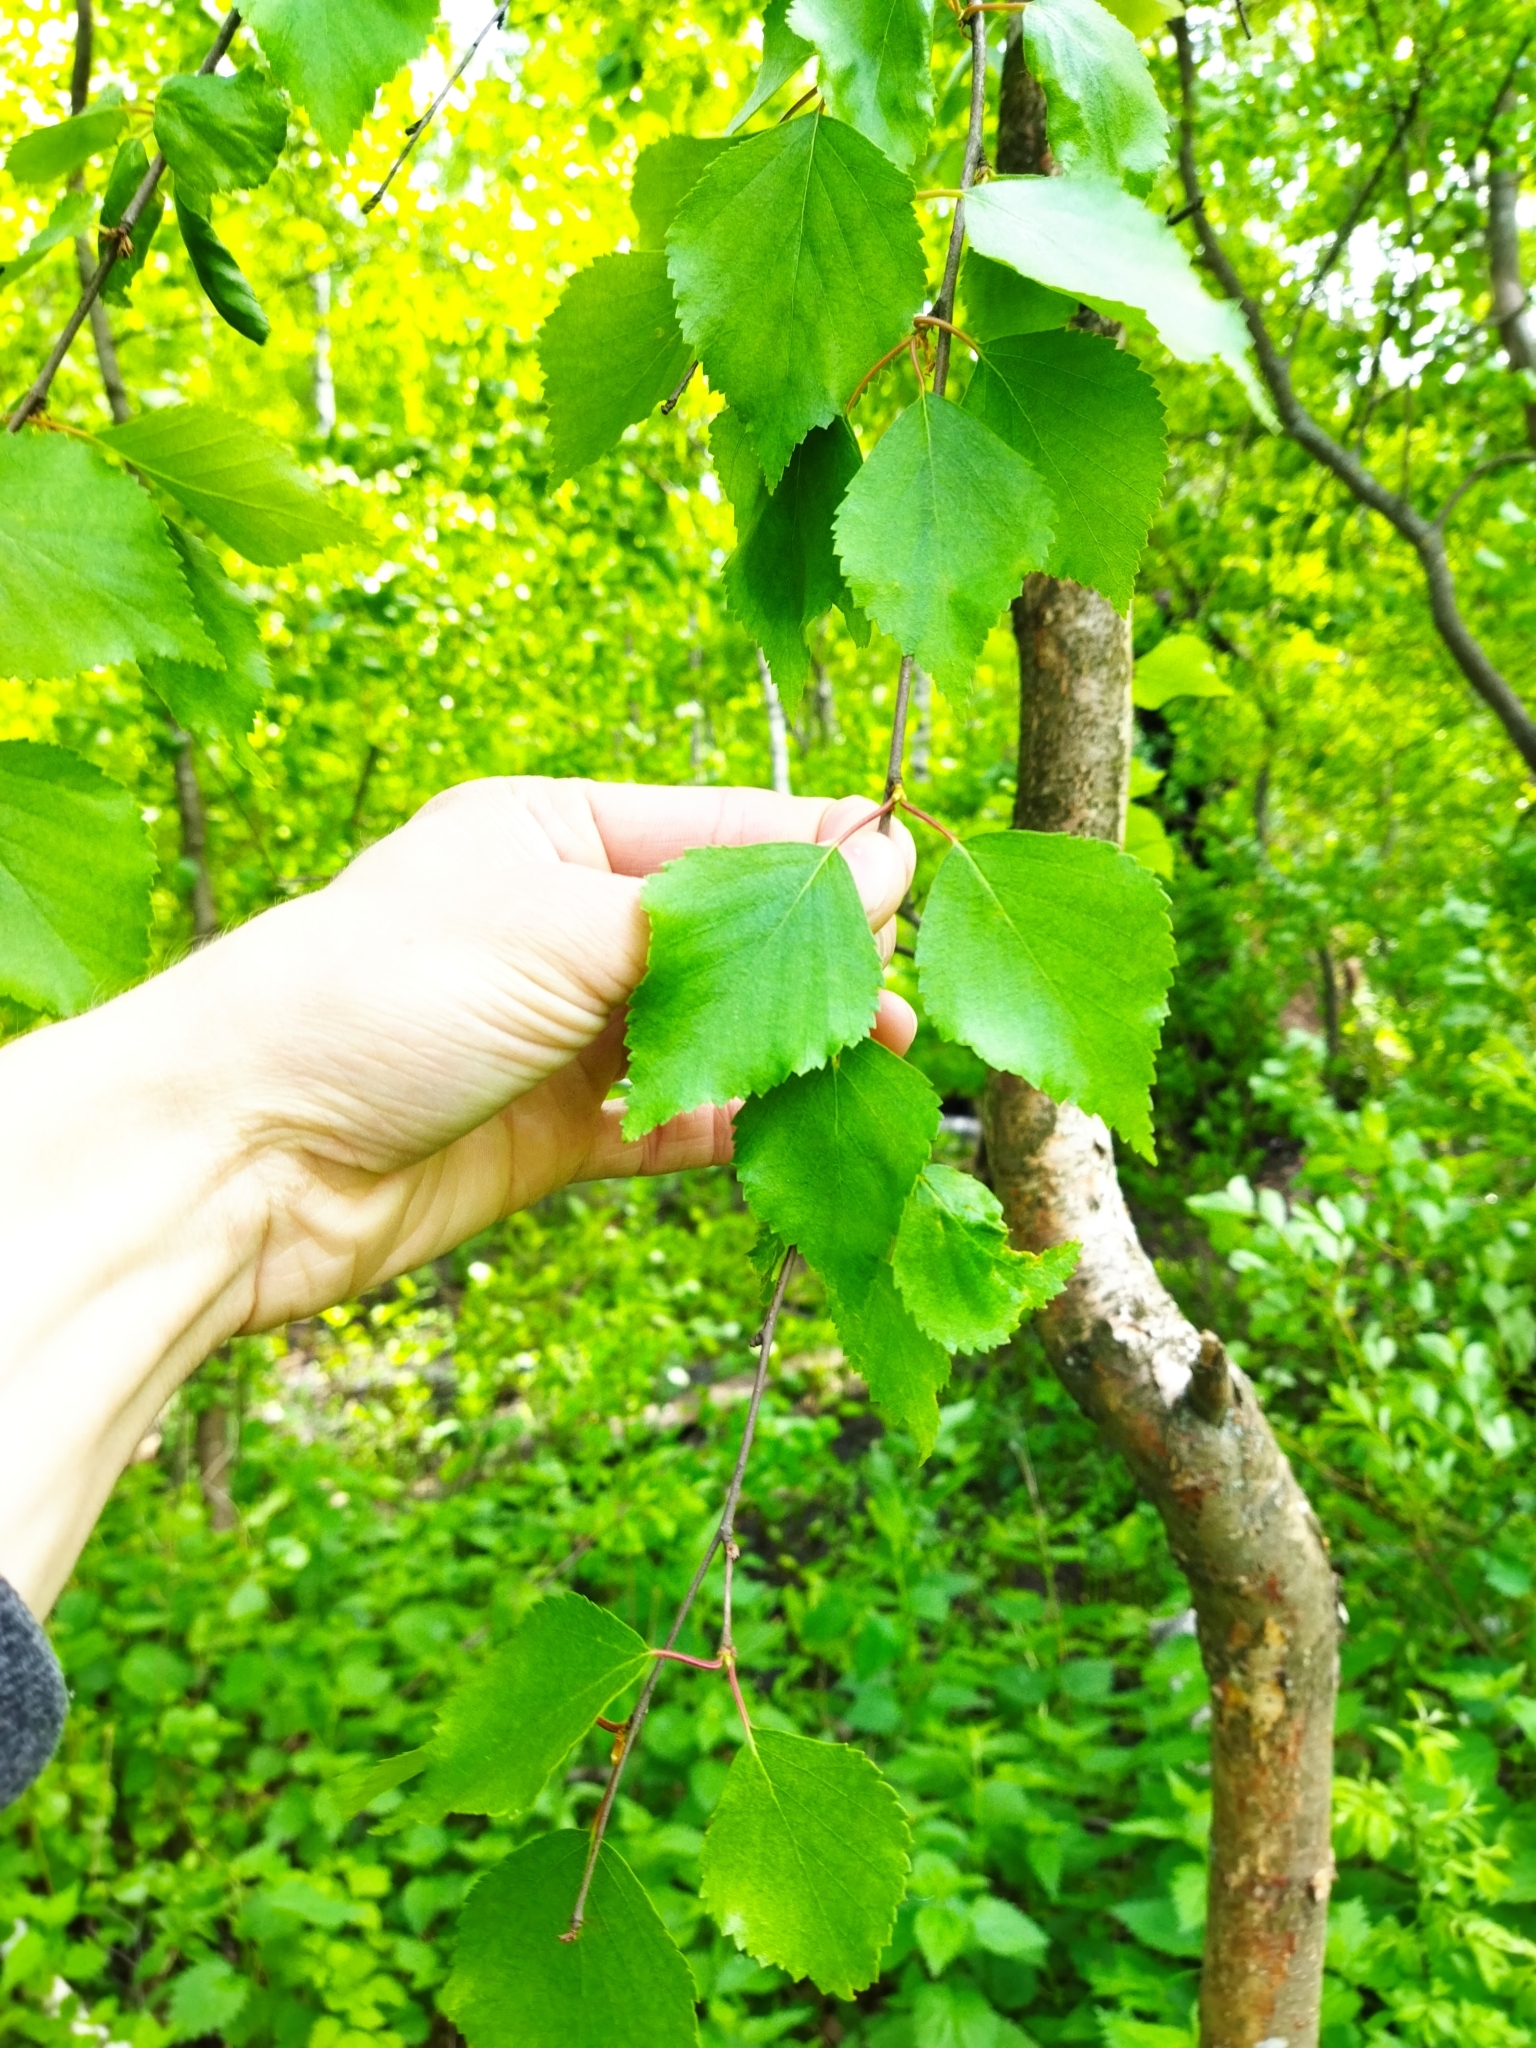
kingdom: Plantae
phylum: Tracheophyta
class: Magnoliopsida
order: Fagales
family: Betulaceae
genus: Betula
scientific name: Betula pendula
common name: Silver birch
